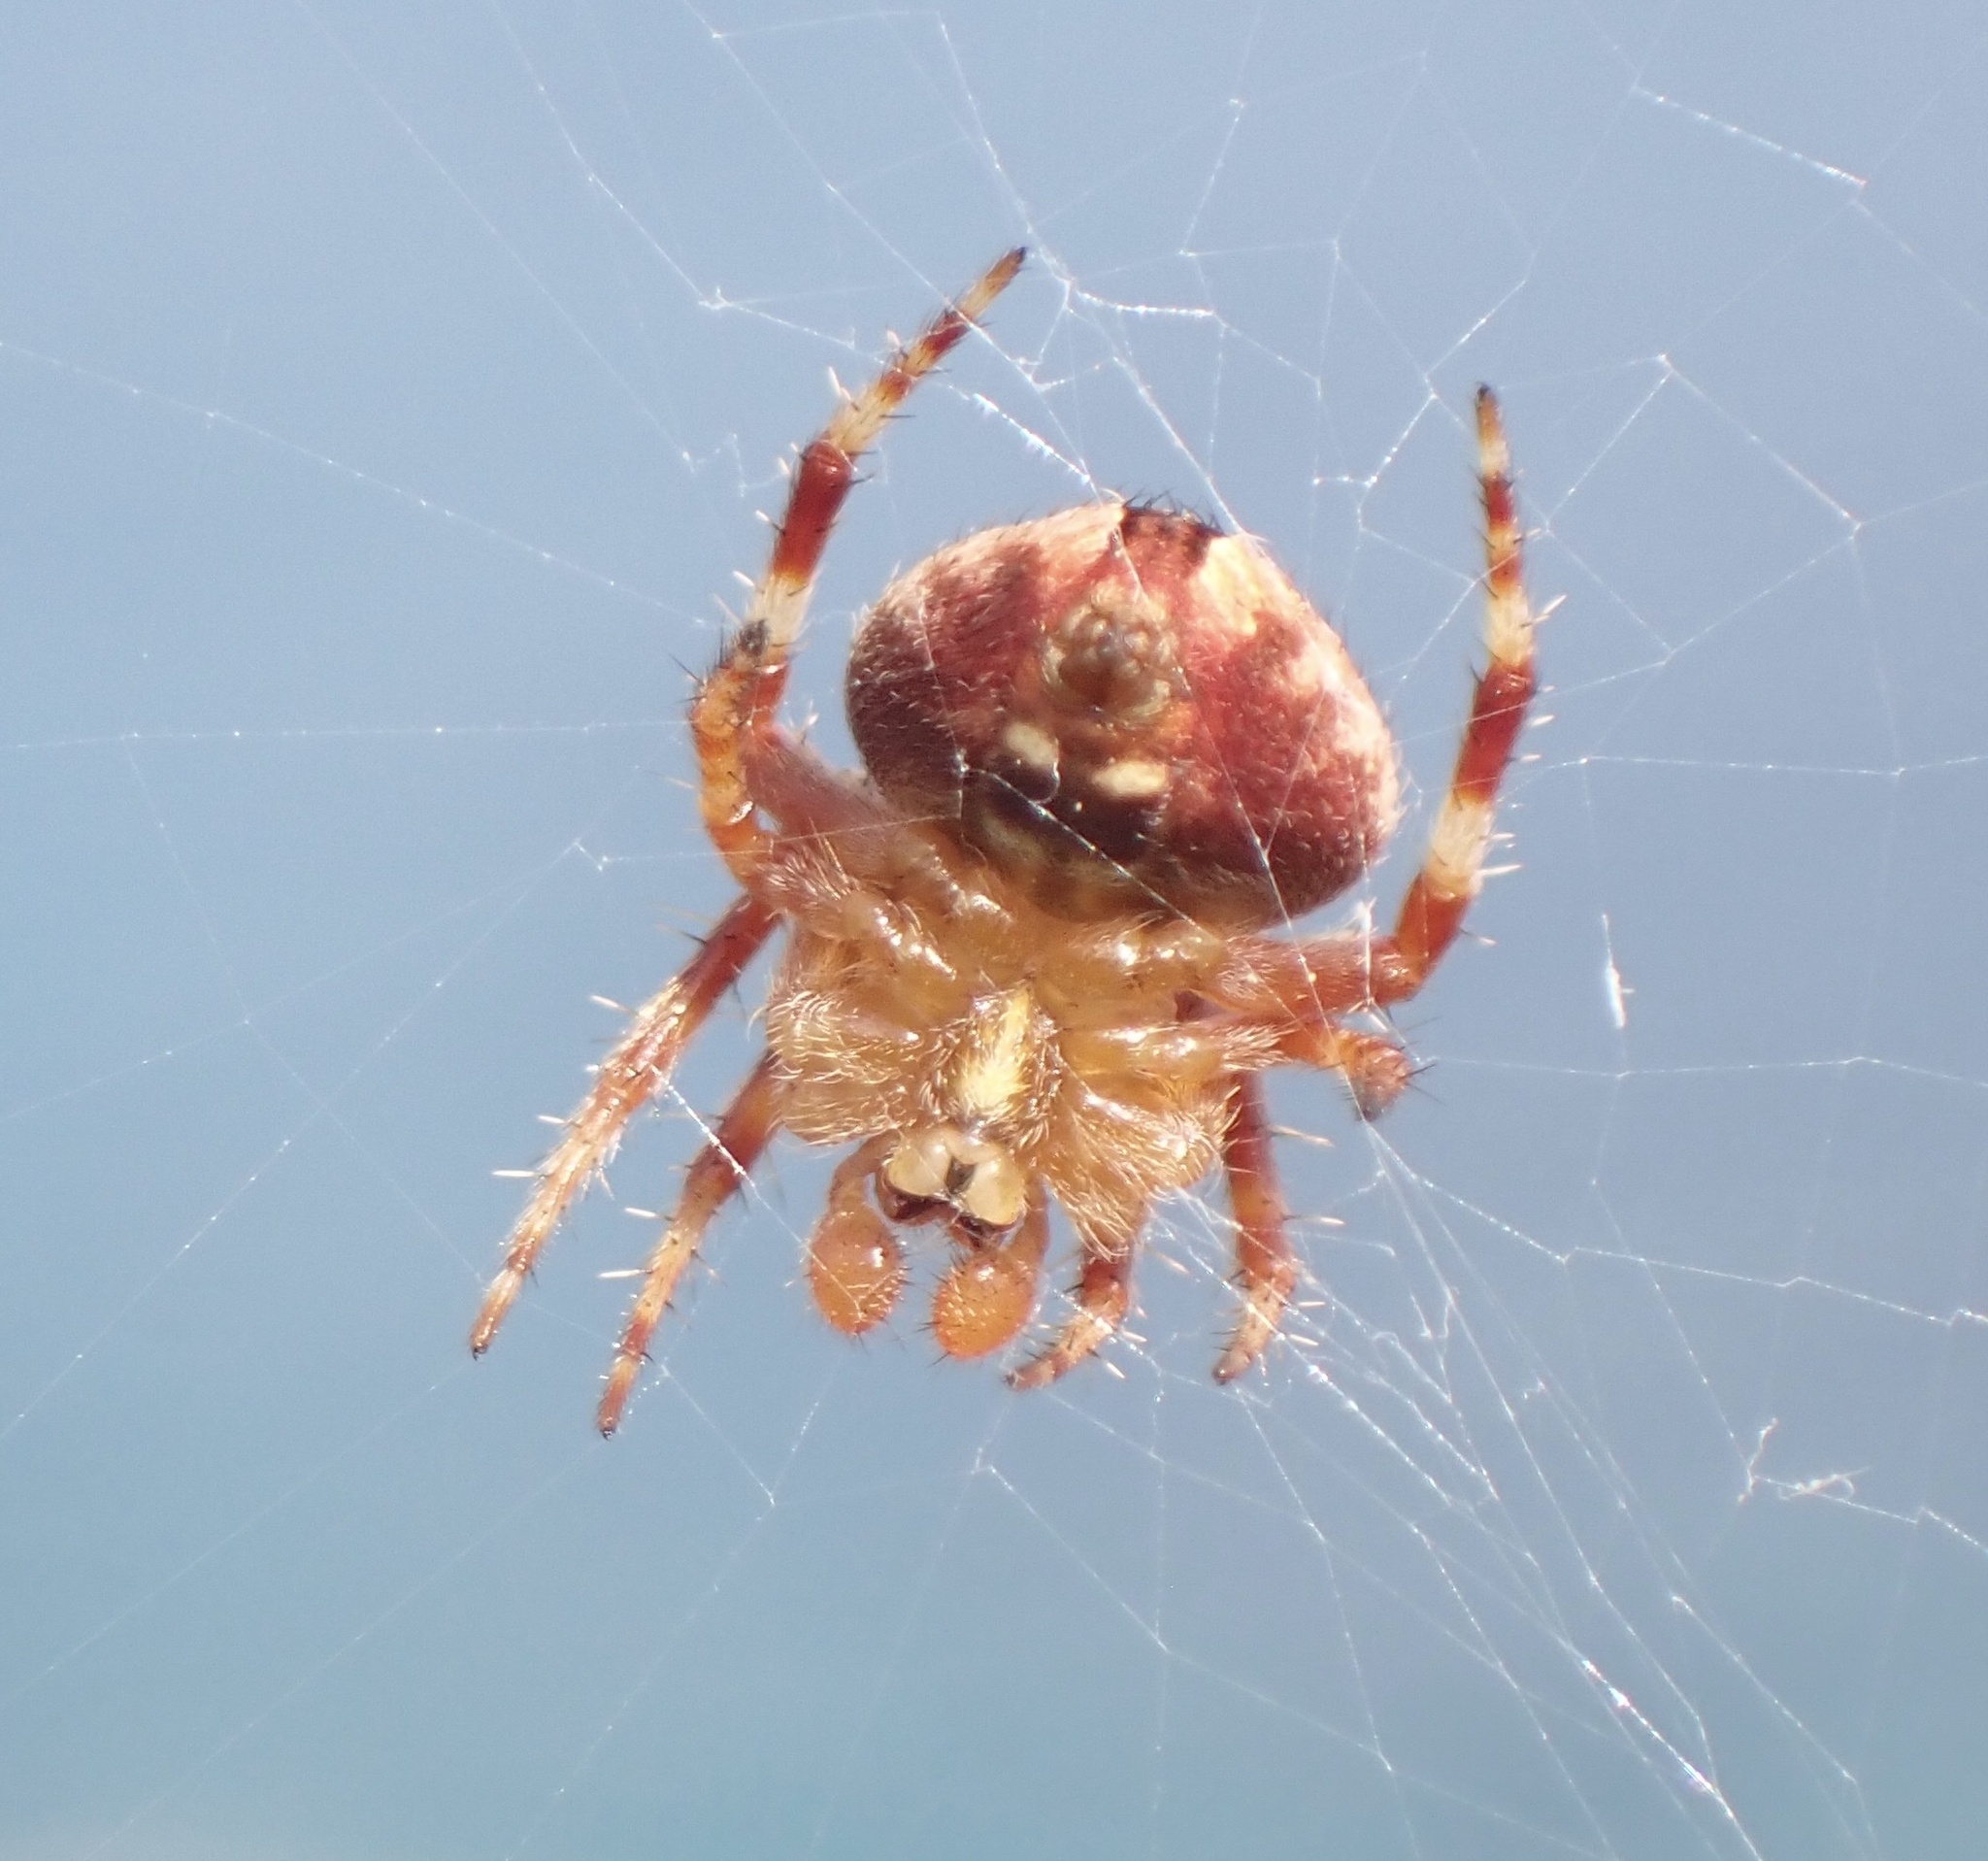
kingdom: Animalia
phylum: Arthropoda
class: Arachnida
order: Araneae
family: Araneidae
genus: Neoscona
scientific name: Neoscona subfusca
